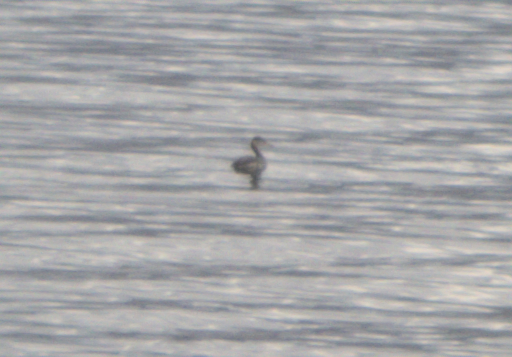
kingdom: Animalia
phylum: Chordata
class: Aves
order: Podicipediformes
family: Podicipedidae
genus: Podiceps
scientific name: Podiceps grisegena
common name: Red-necked grebe
